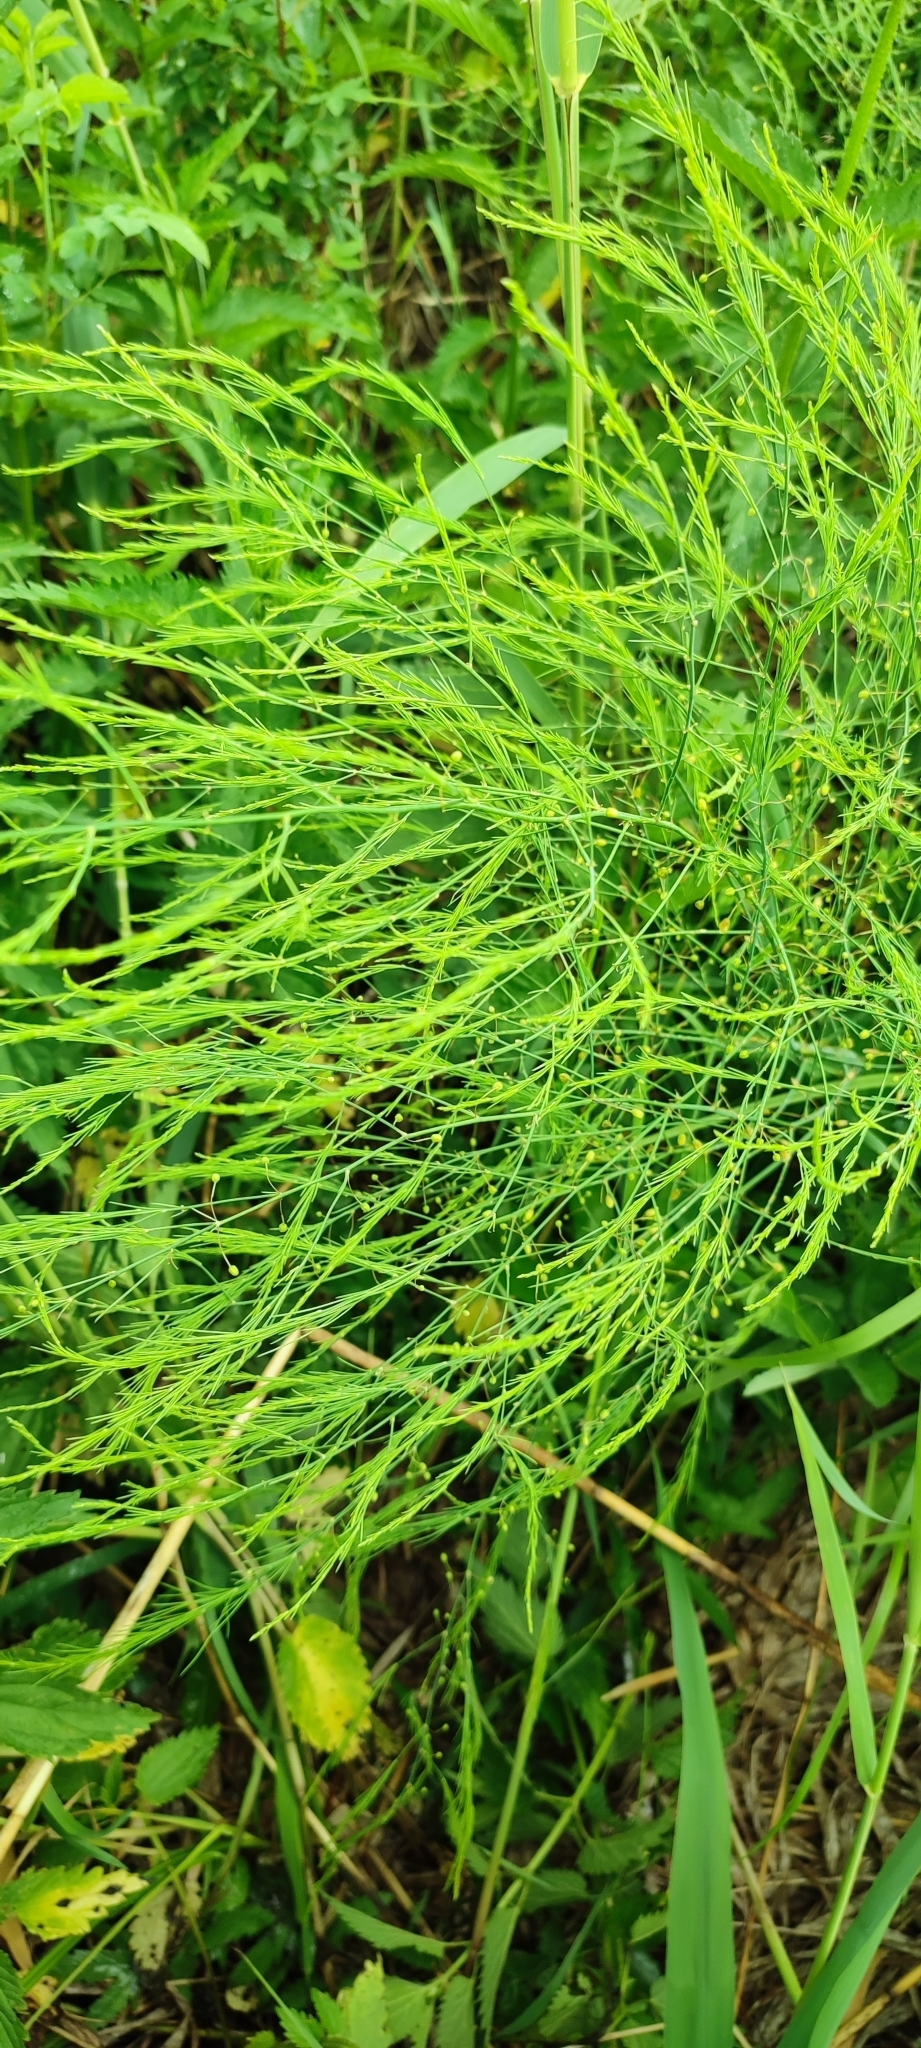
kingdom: Plantae
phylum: Tracheophyta
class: Liliopsida
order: Asparagales
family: Asparagaceae
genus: Asparagus
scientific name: Asparagus officinalis
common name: Garden asparagus
